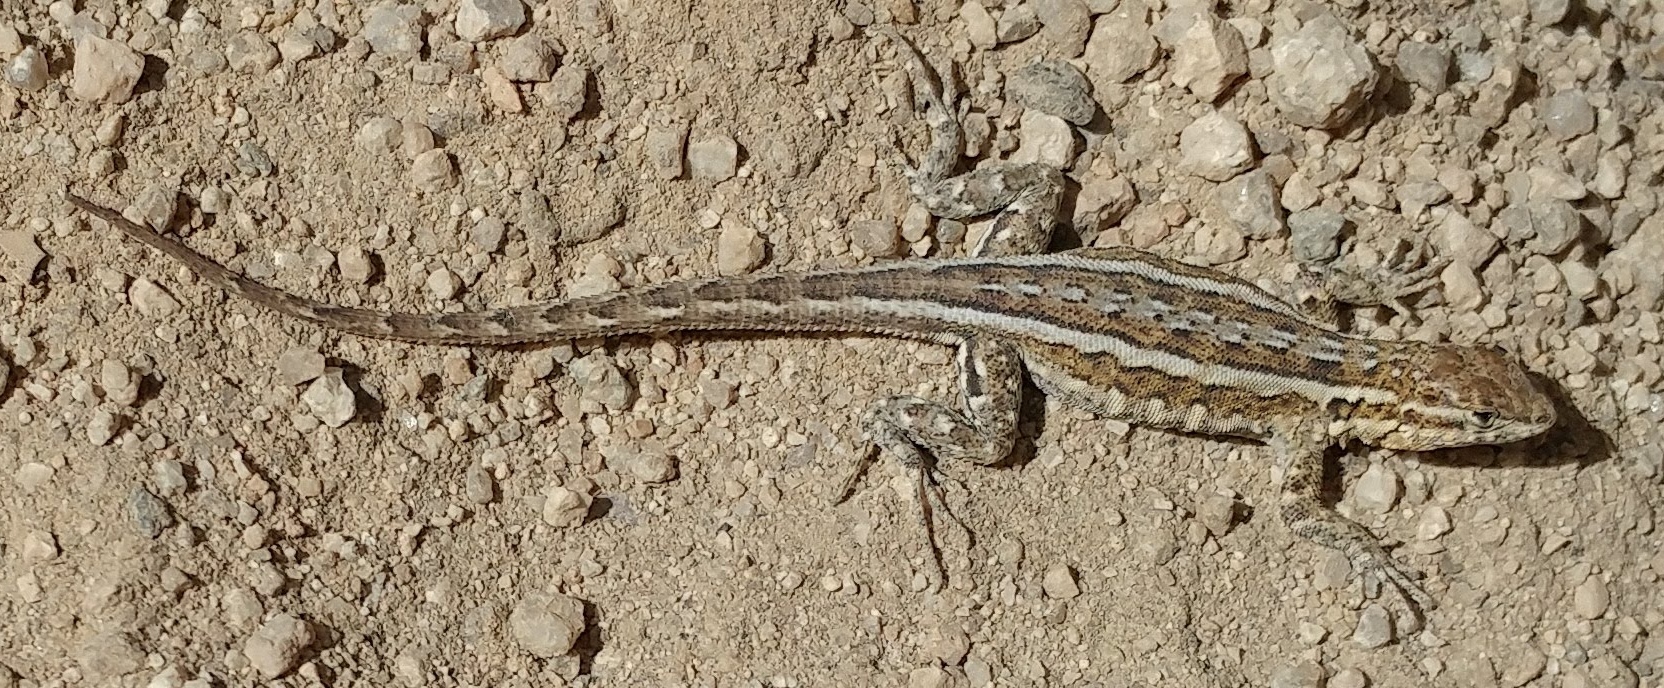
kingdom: Animalia
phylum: Chordata
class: Squamata
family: Phrynosomatidae
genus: Uta
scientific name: Uta stansburiana
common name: Side-blotched lizard
